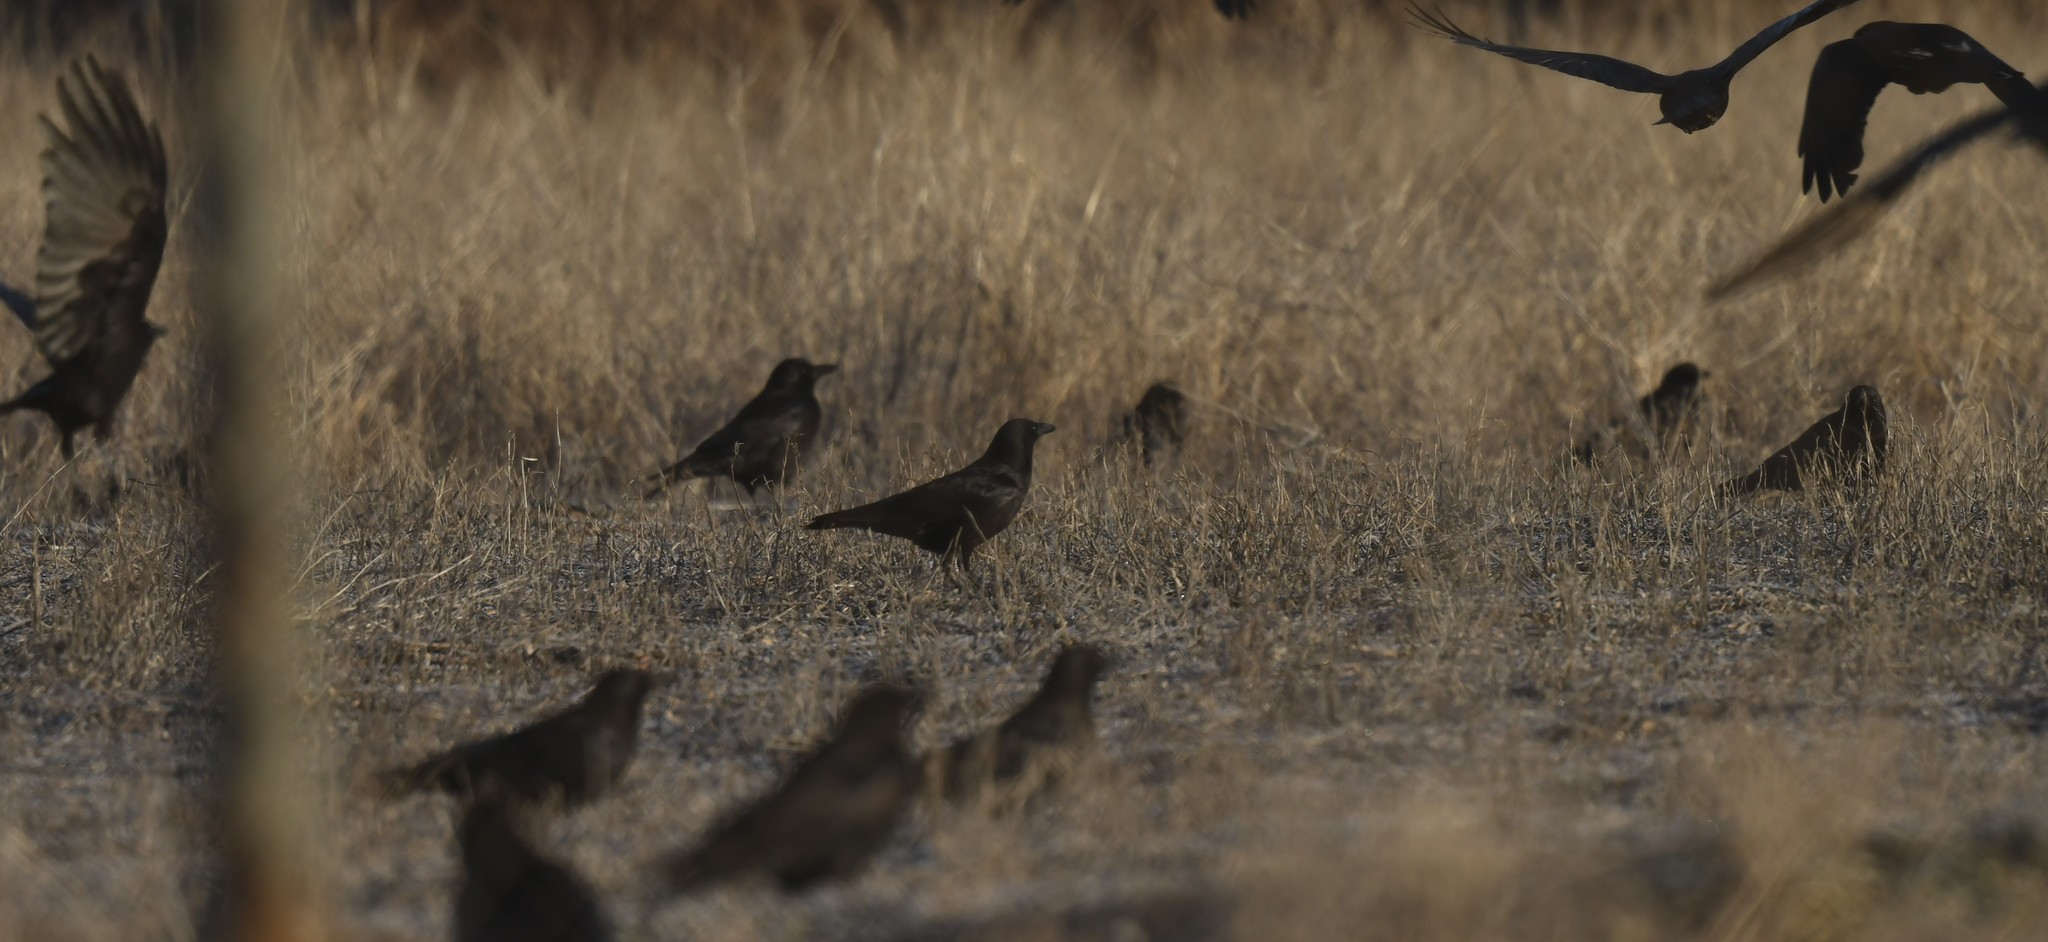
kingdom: Animalia
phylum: Chordata
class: Aves
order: Passeriformes
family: Corvidae
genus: Corvus
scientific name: Corvus brachyrhynchos
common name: American crow
